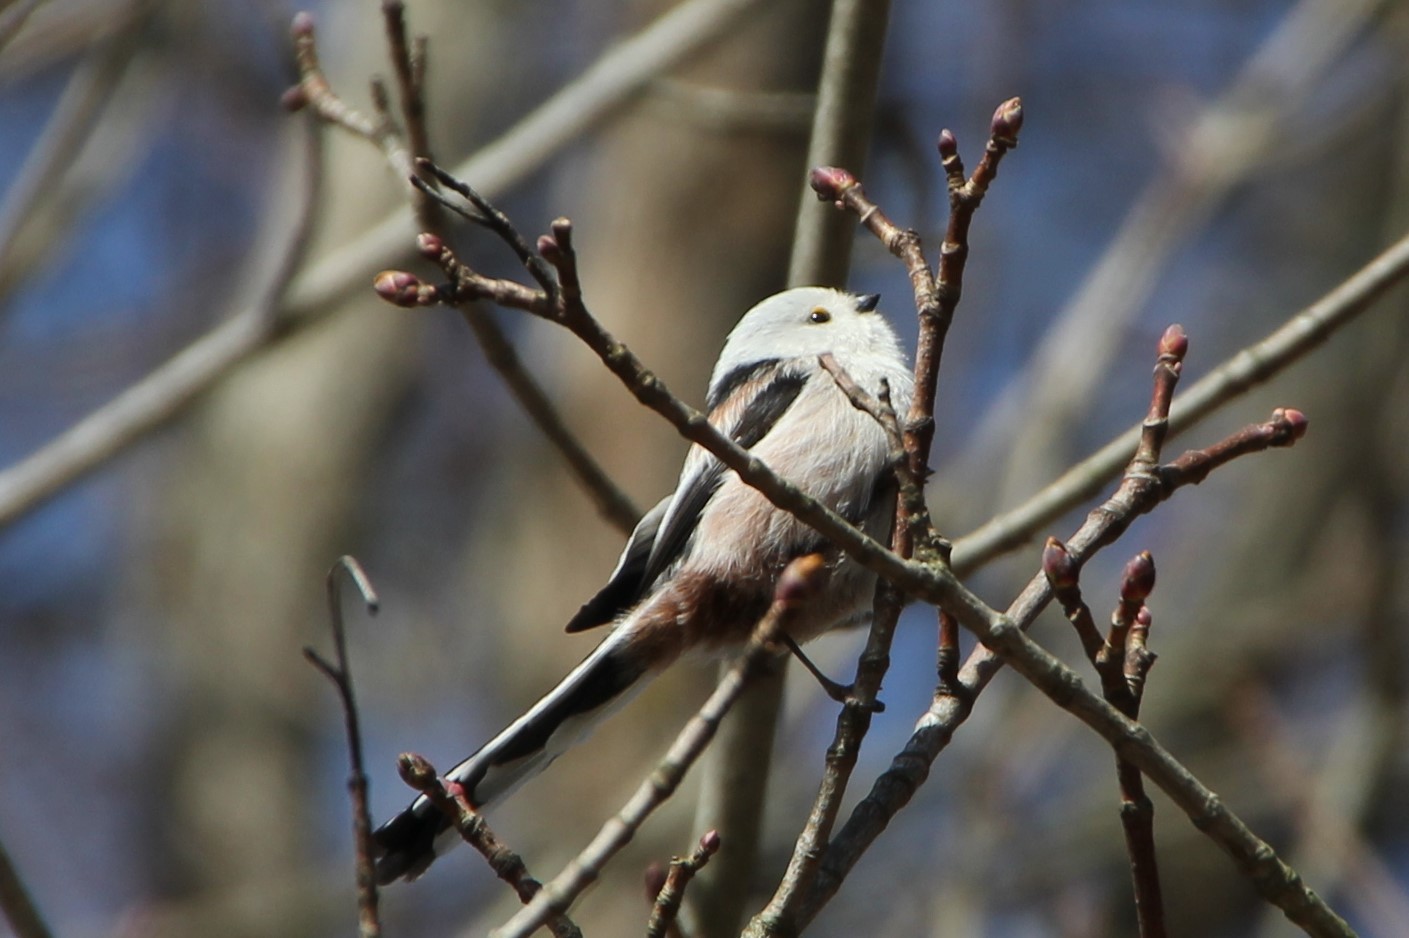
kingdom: Animalia
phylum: Chordata
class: Aves
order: Passeriformes
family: Aegithalidae
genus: Aegithalos
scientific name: Aegithalos caudatus
